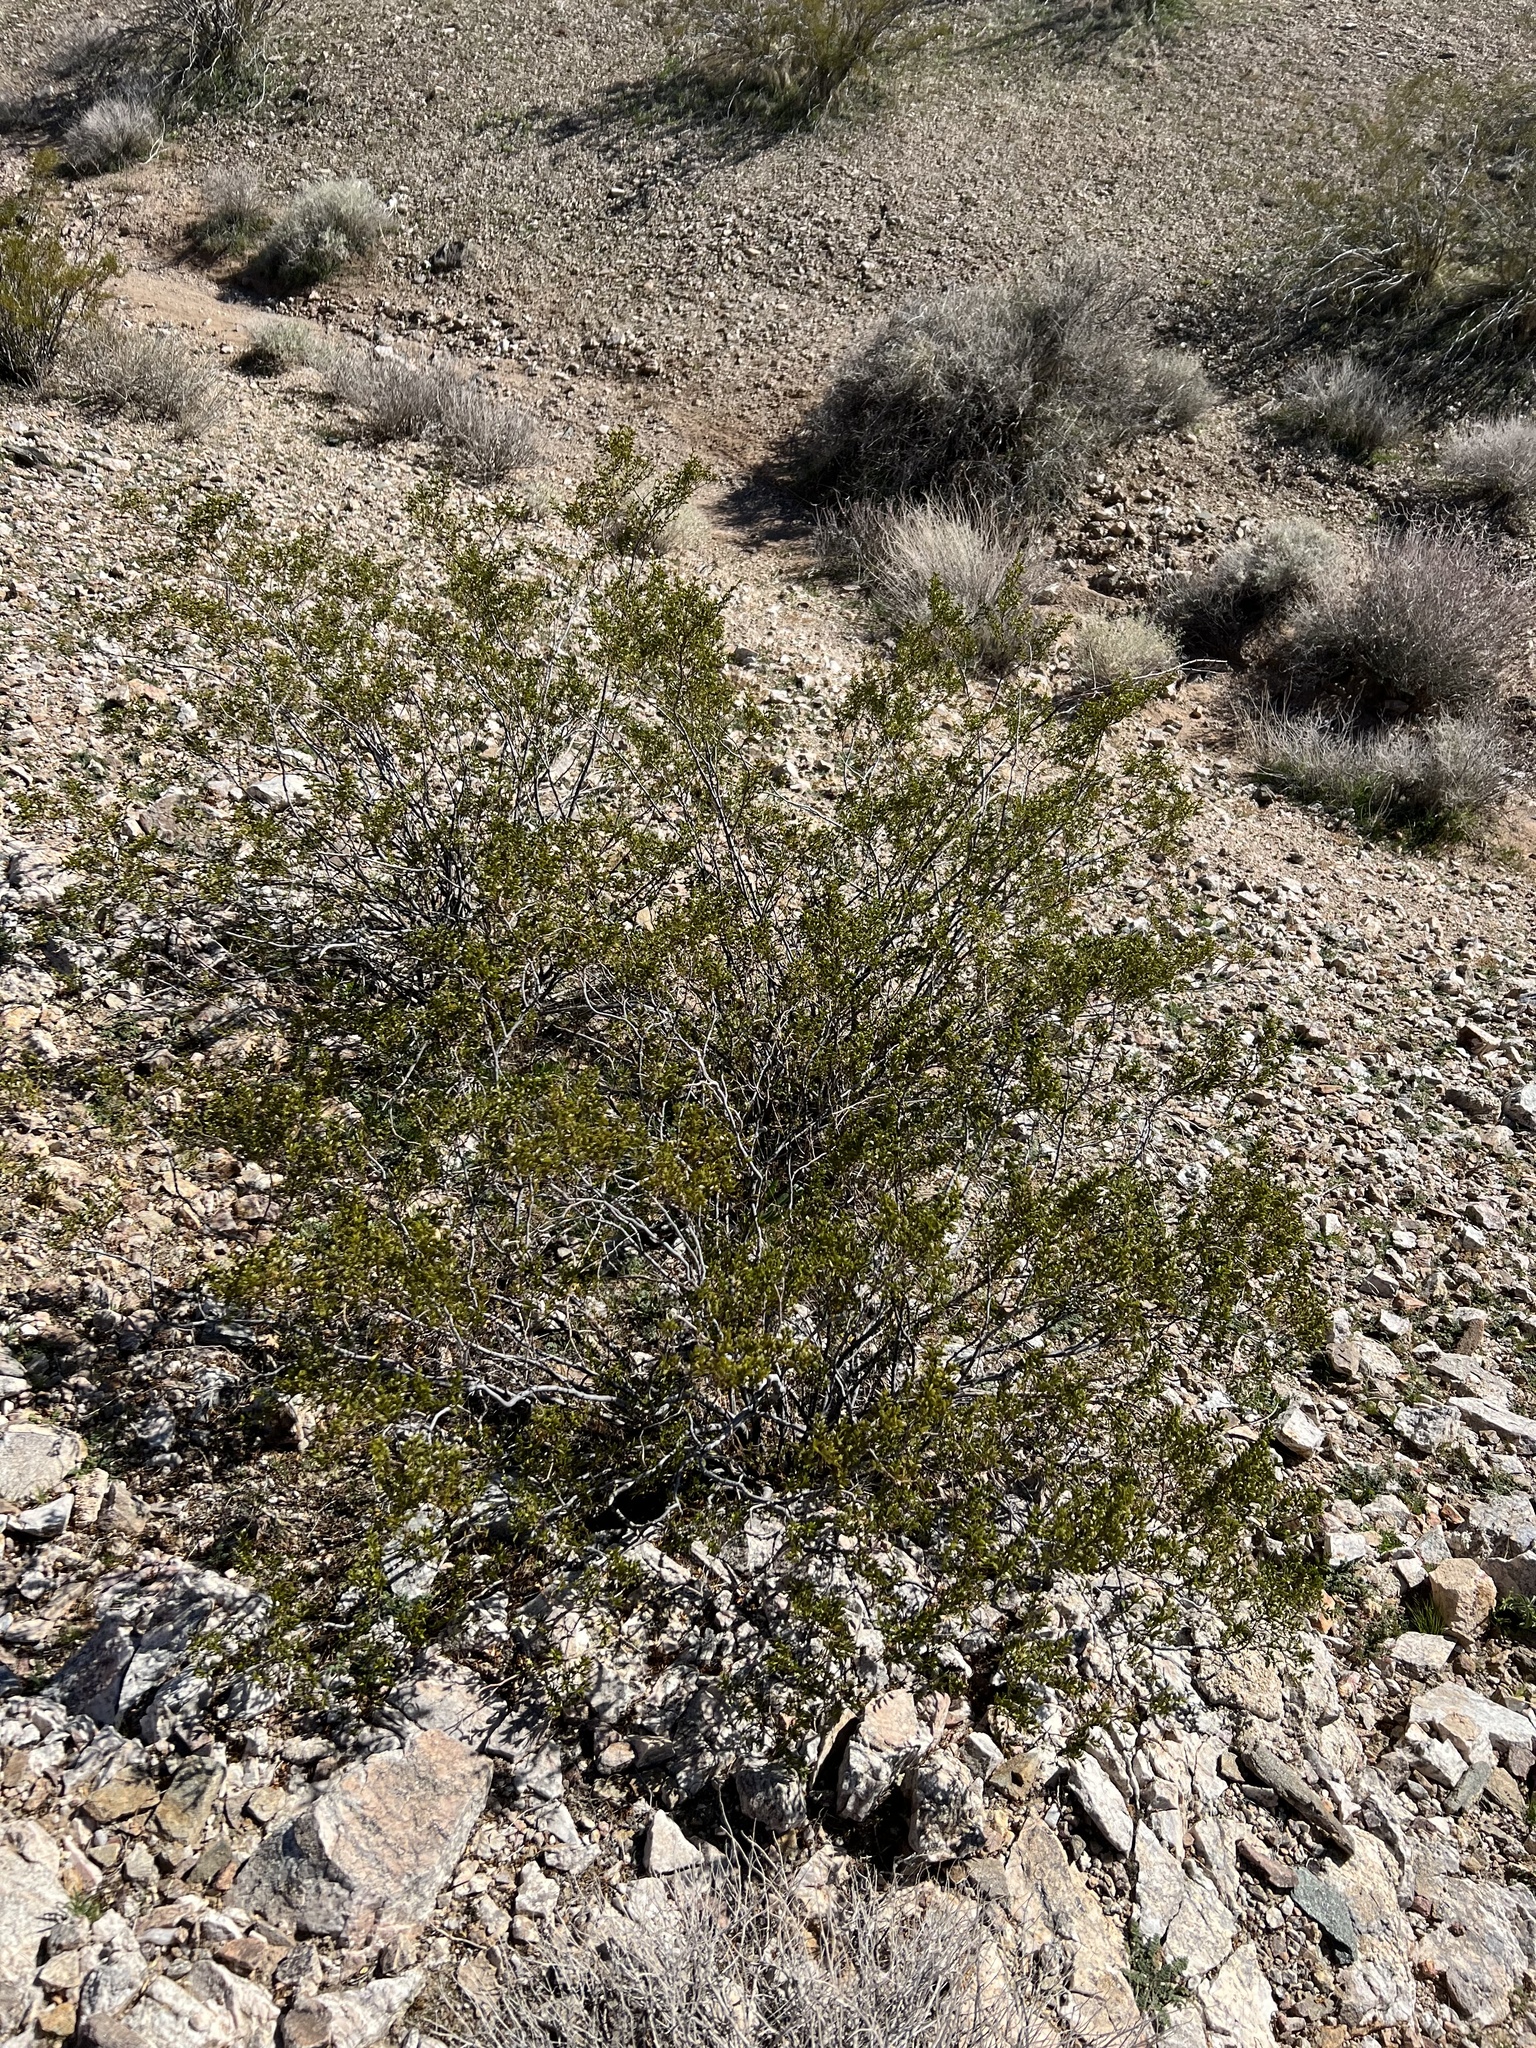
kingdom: Plantae
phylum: Tracheophyta
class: Magnoliopsida
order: Zygophyllales
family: Zygophyllaceae
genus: Larrea
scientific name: Larrea tridentata
